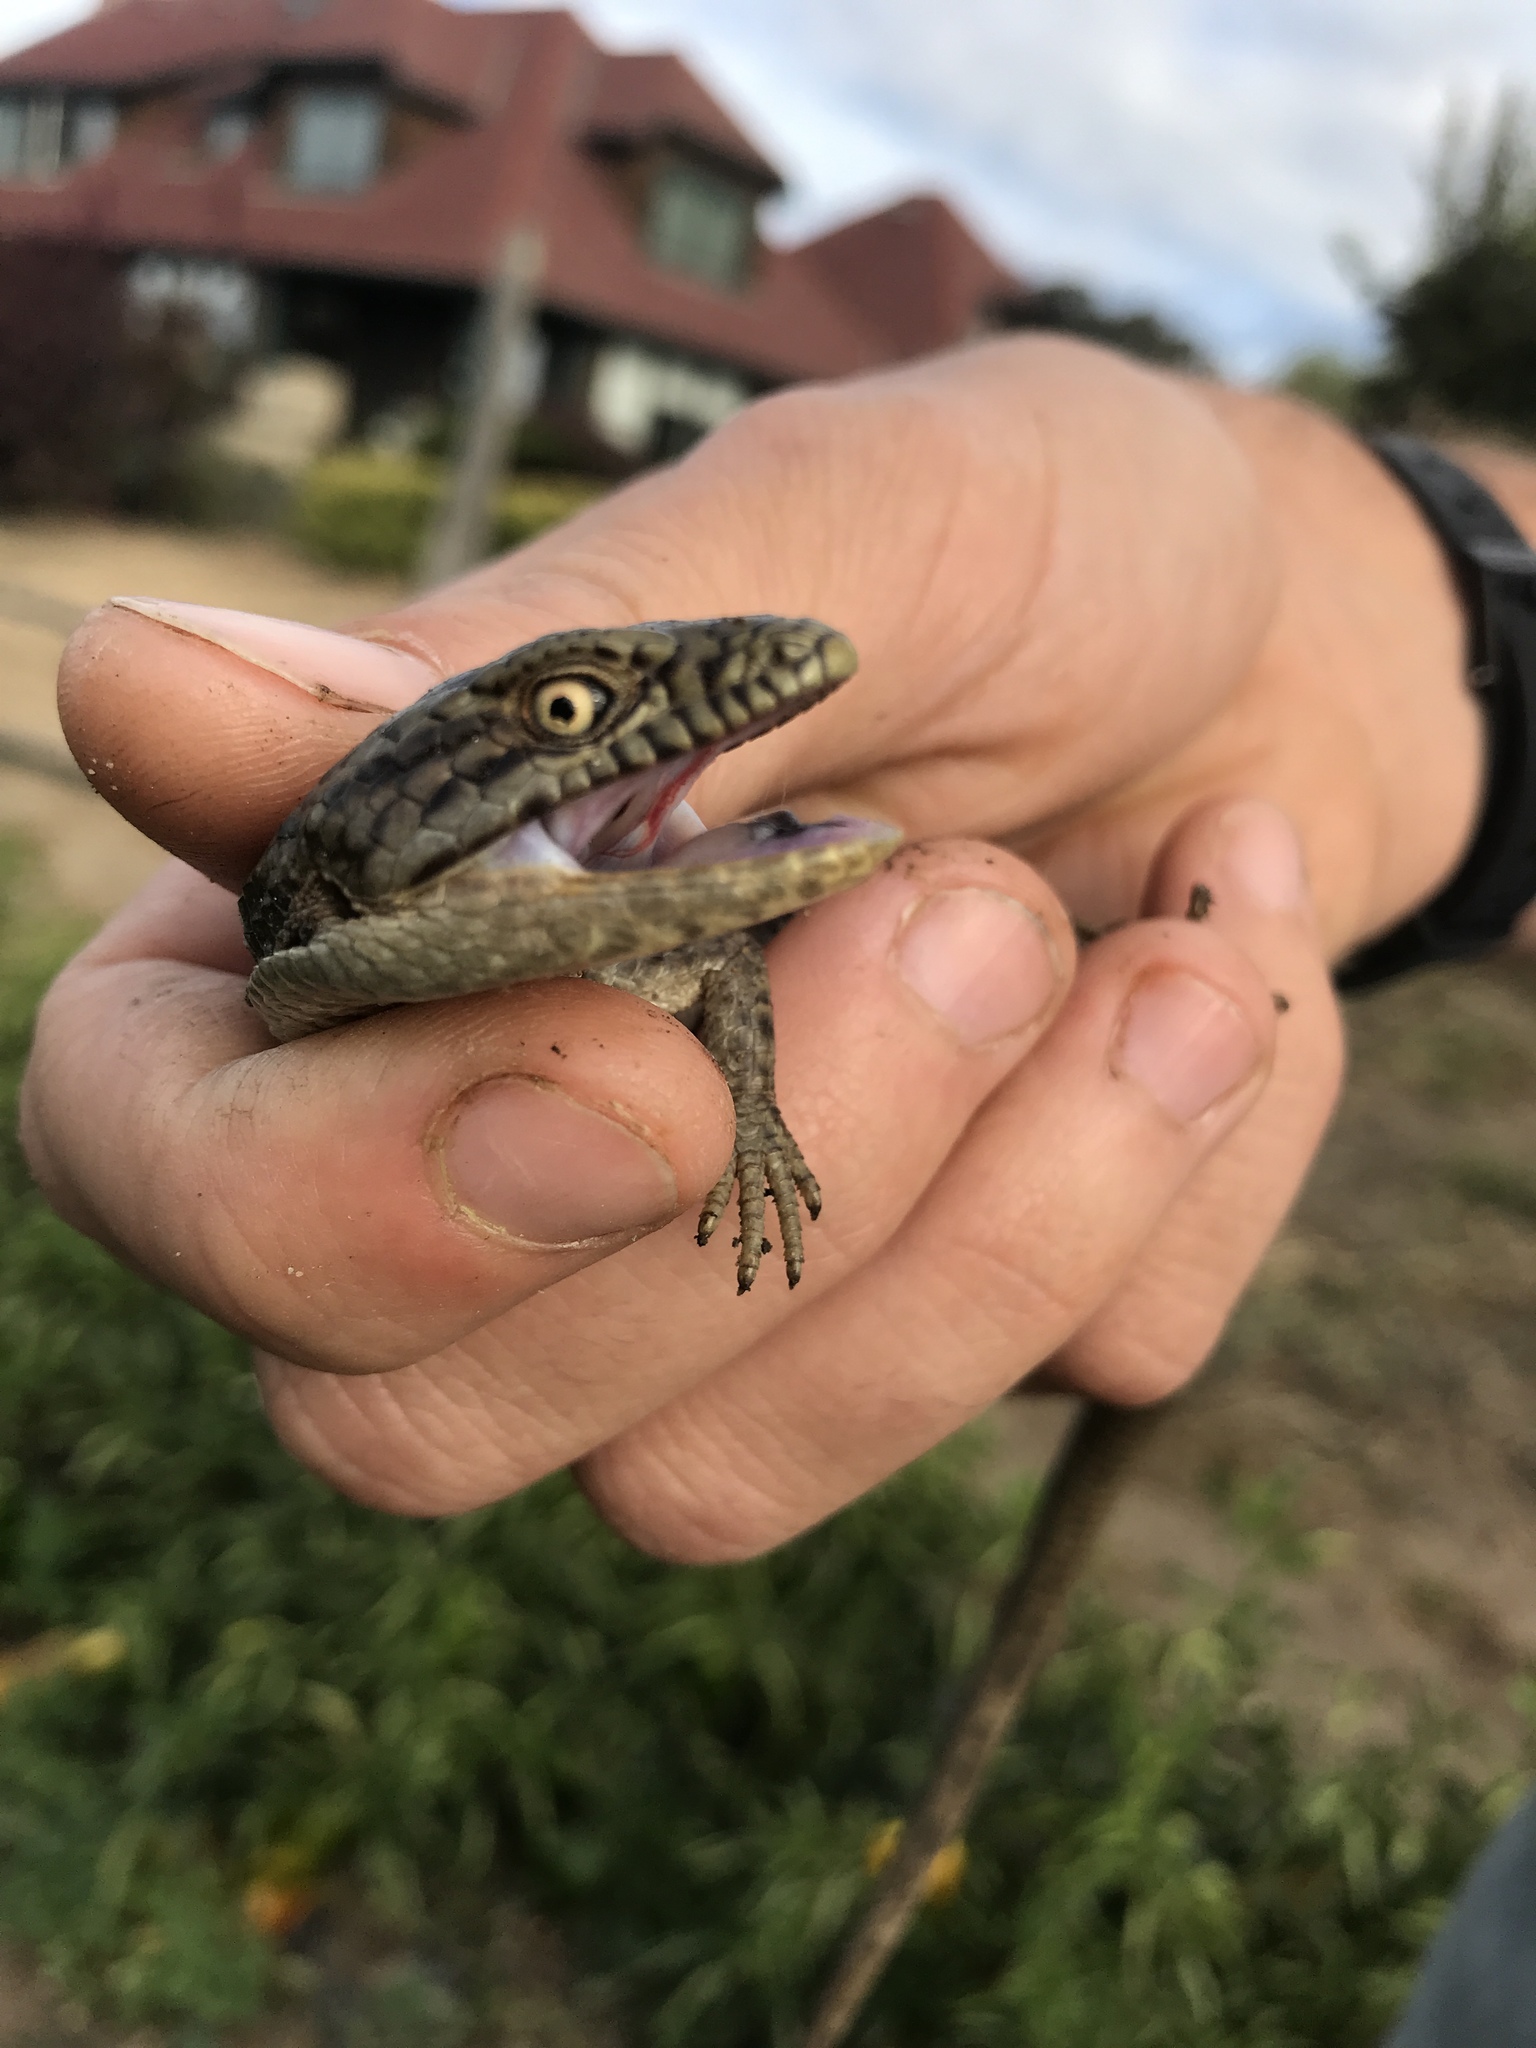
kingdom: Animalia
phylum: Chordata
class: Squamata
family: Anguidae
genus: Elgaria
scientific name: Elgaria multicarinata
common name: Southern alligator lizard
